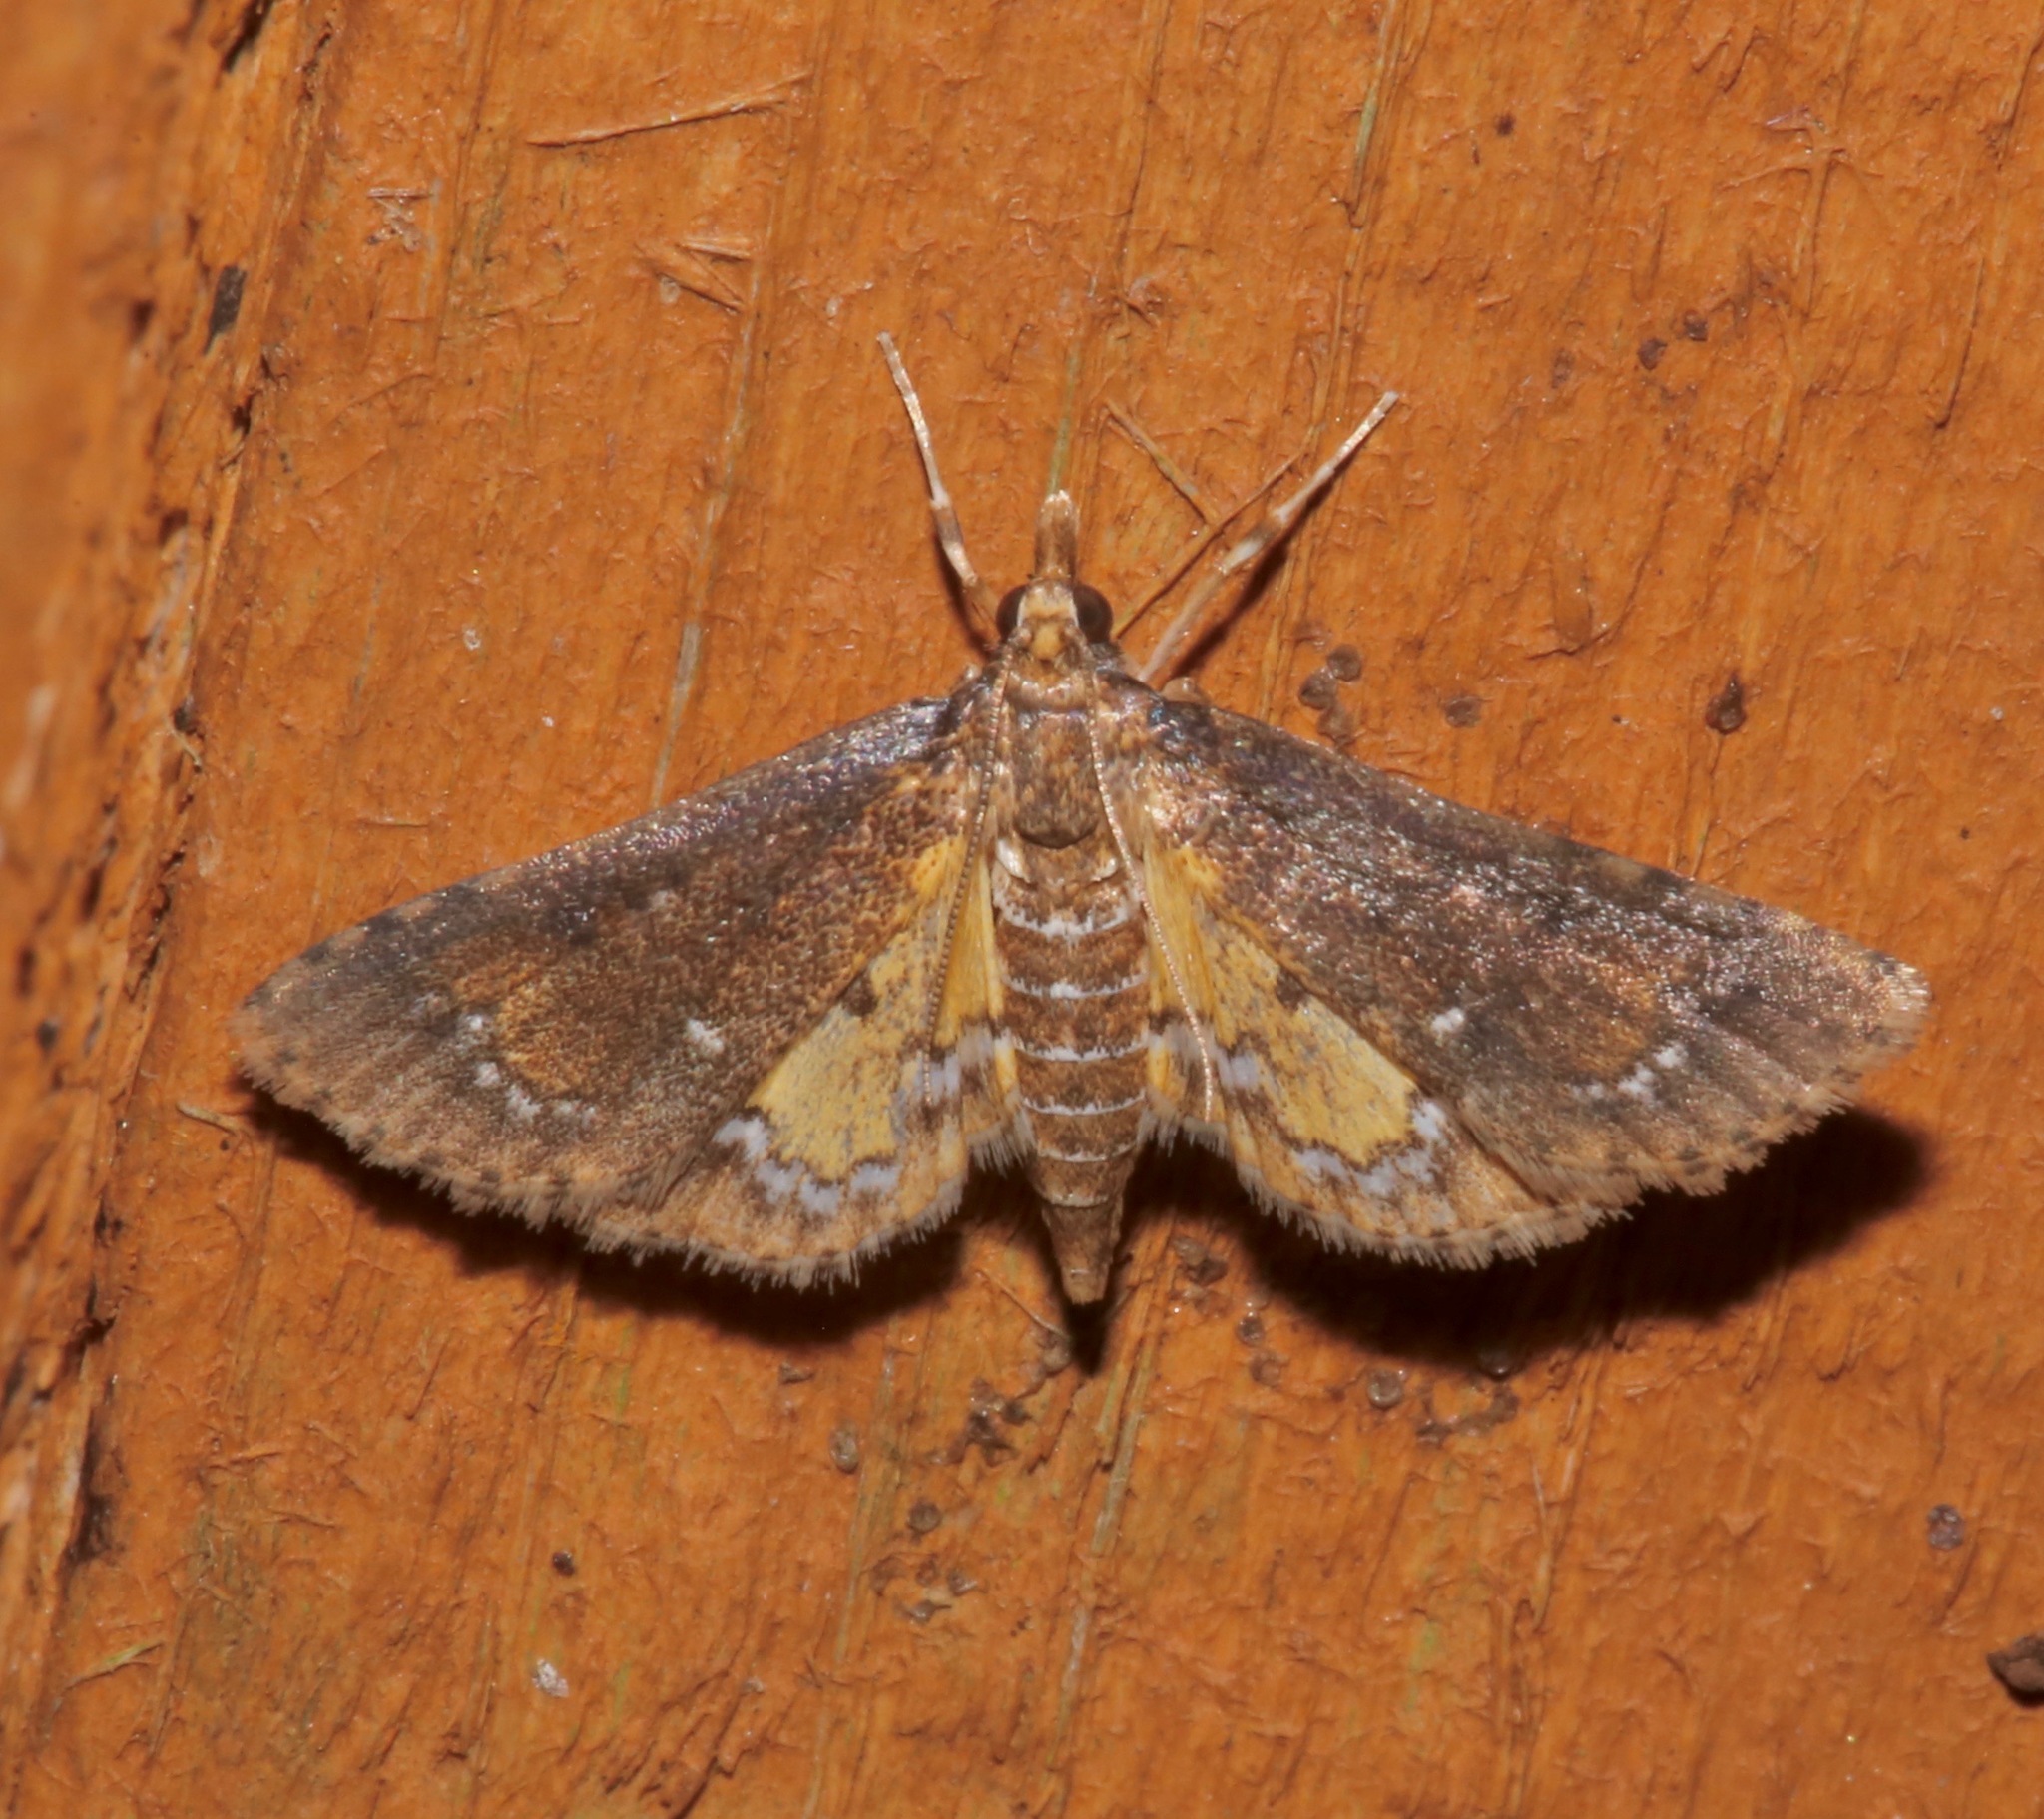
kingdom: Animalia
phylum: Arthropoda
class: Insecta
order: Lepidoptera
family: Crambidae
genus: Niphograpta
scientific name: Niphograpta albiguttalis
